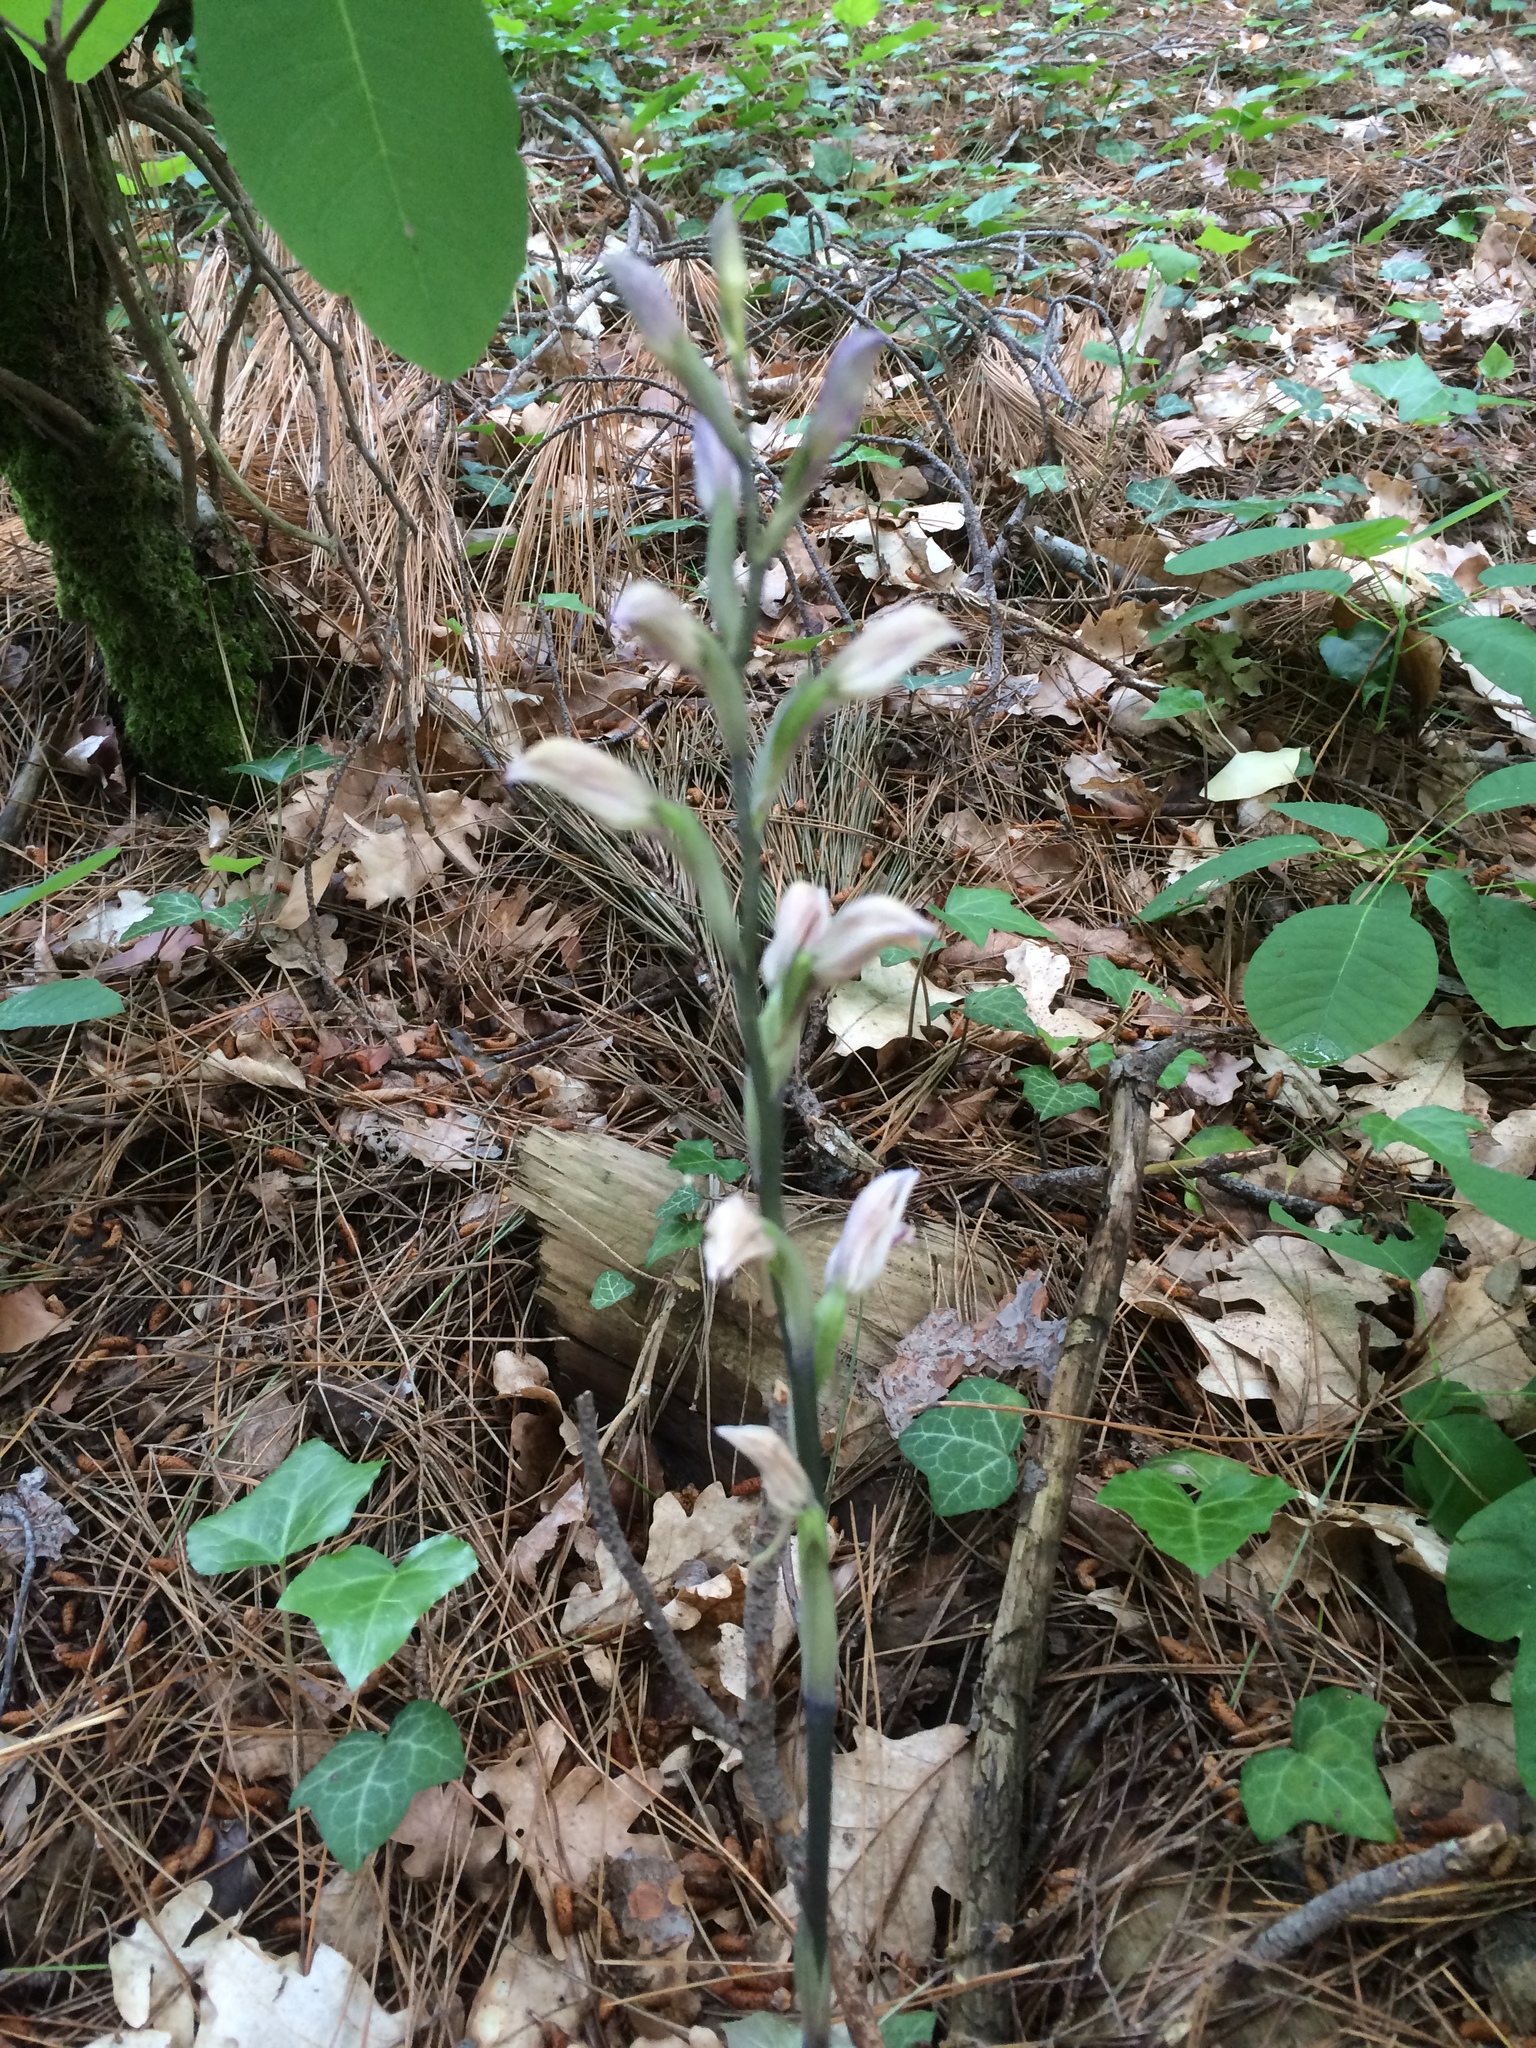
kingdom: Plantae
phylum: Tracheophyta
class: Liliopsida
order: Asparagales
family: Orchidaceae
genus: Limodorum
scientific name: Limodorum abortivum
